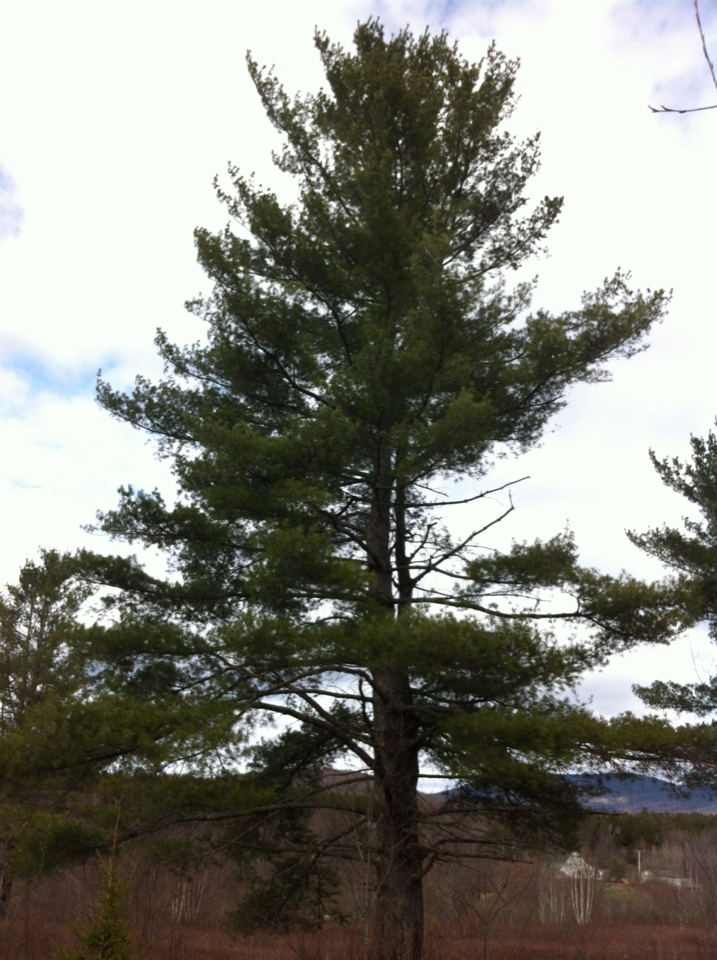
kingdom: Plantae
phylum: Tracheophyta
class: Pinopsida
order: Pinales
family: Pinaceae
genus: Pinus
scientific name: Pinus strobus
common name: Weymouth pine
